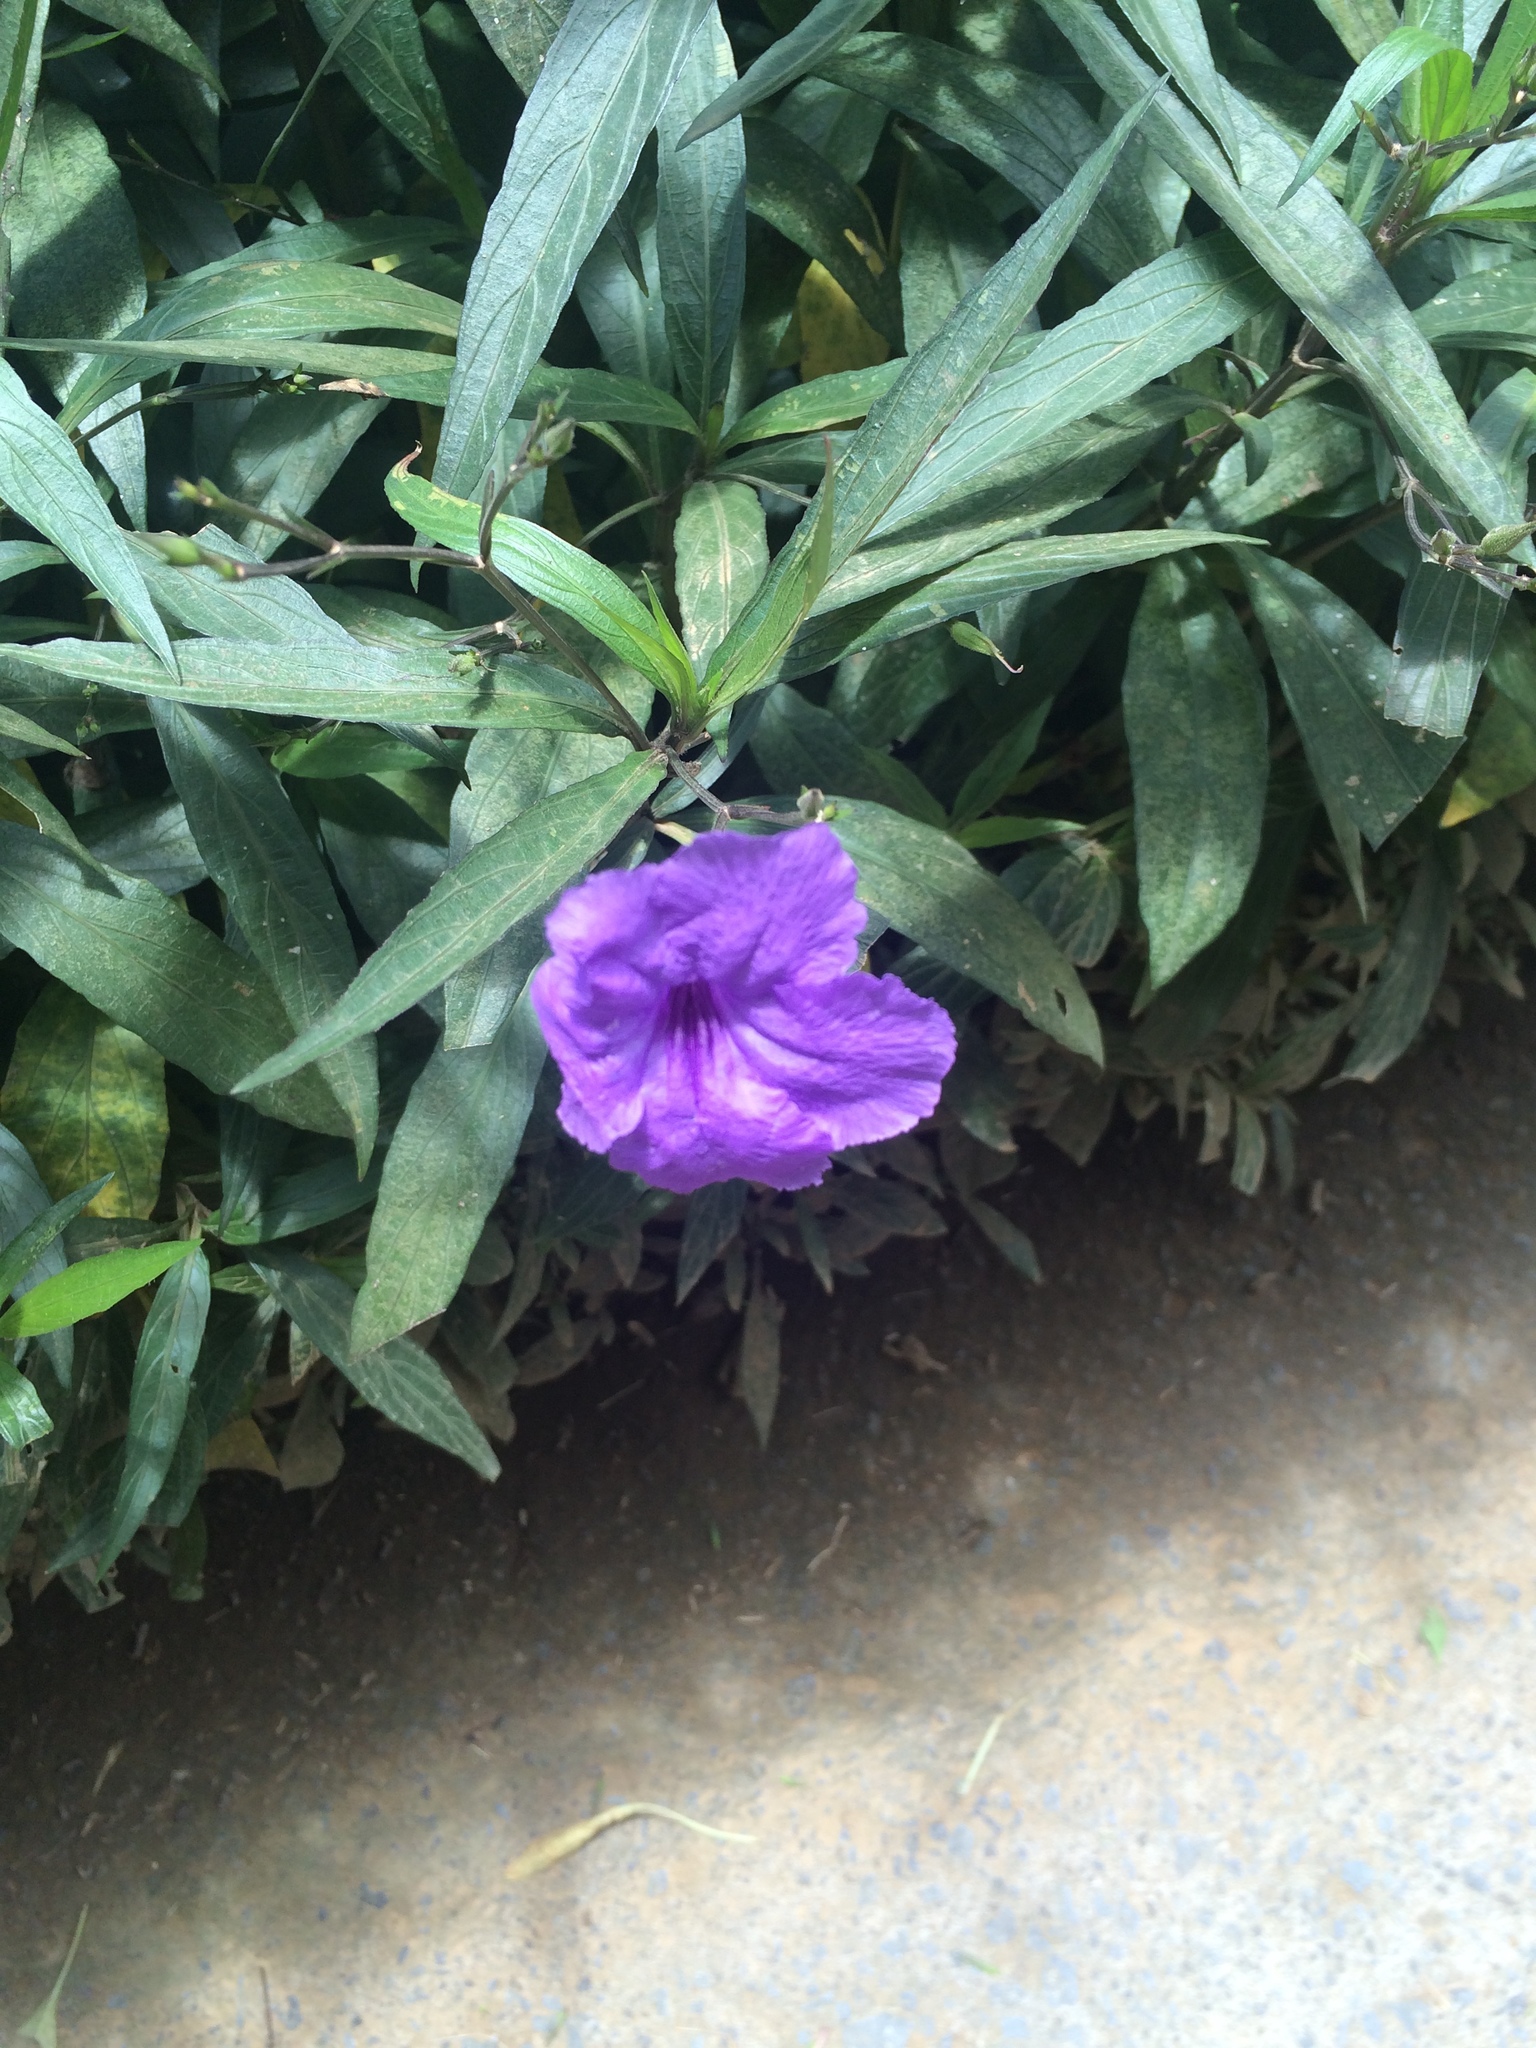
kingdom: Plantae
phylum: Tracheophyta
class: Magnoliopsida
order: Lamiales
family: Acanthaceae
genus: Ruellia
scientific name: Ruellia simplex
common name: Softseed wild petunia
